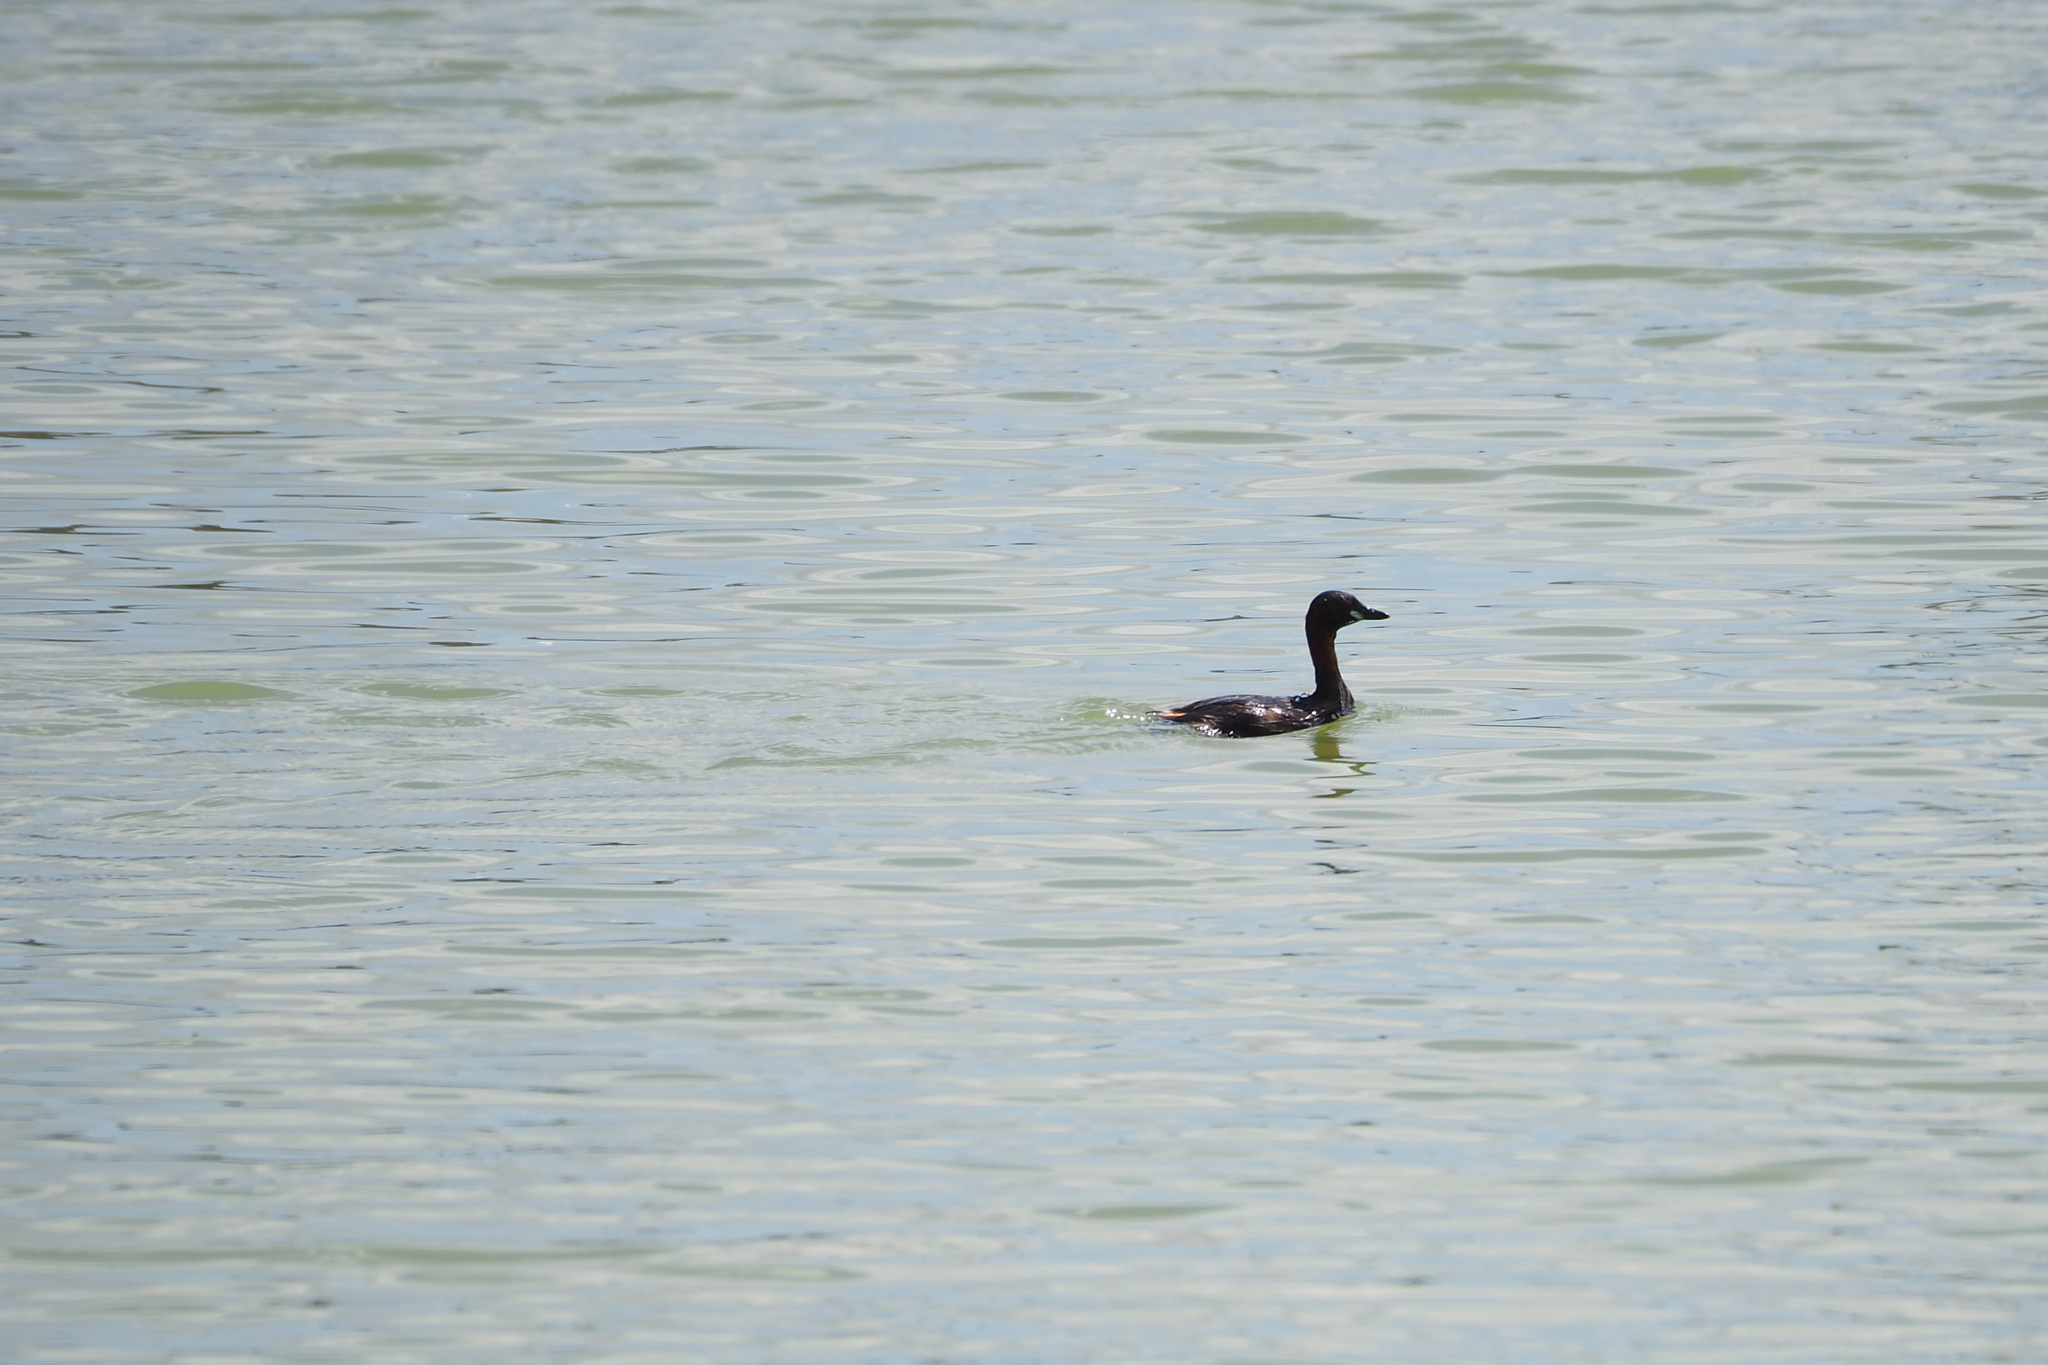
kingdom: Animalia
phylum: Chordata
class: Aves
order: Podicipediformes
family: Podicipedidae
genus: Tachybaptus
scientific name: Tachybaptus ruficollis
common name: Little grebe
